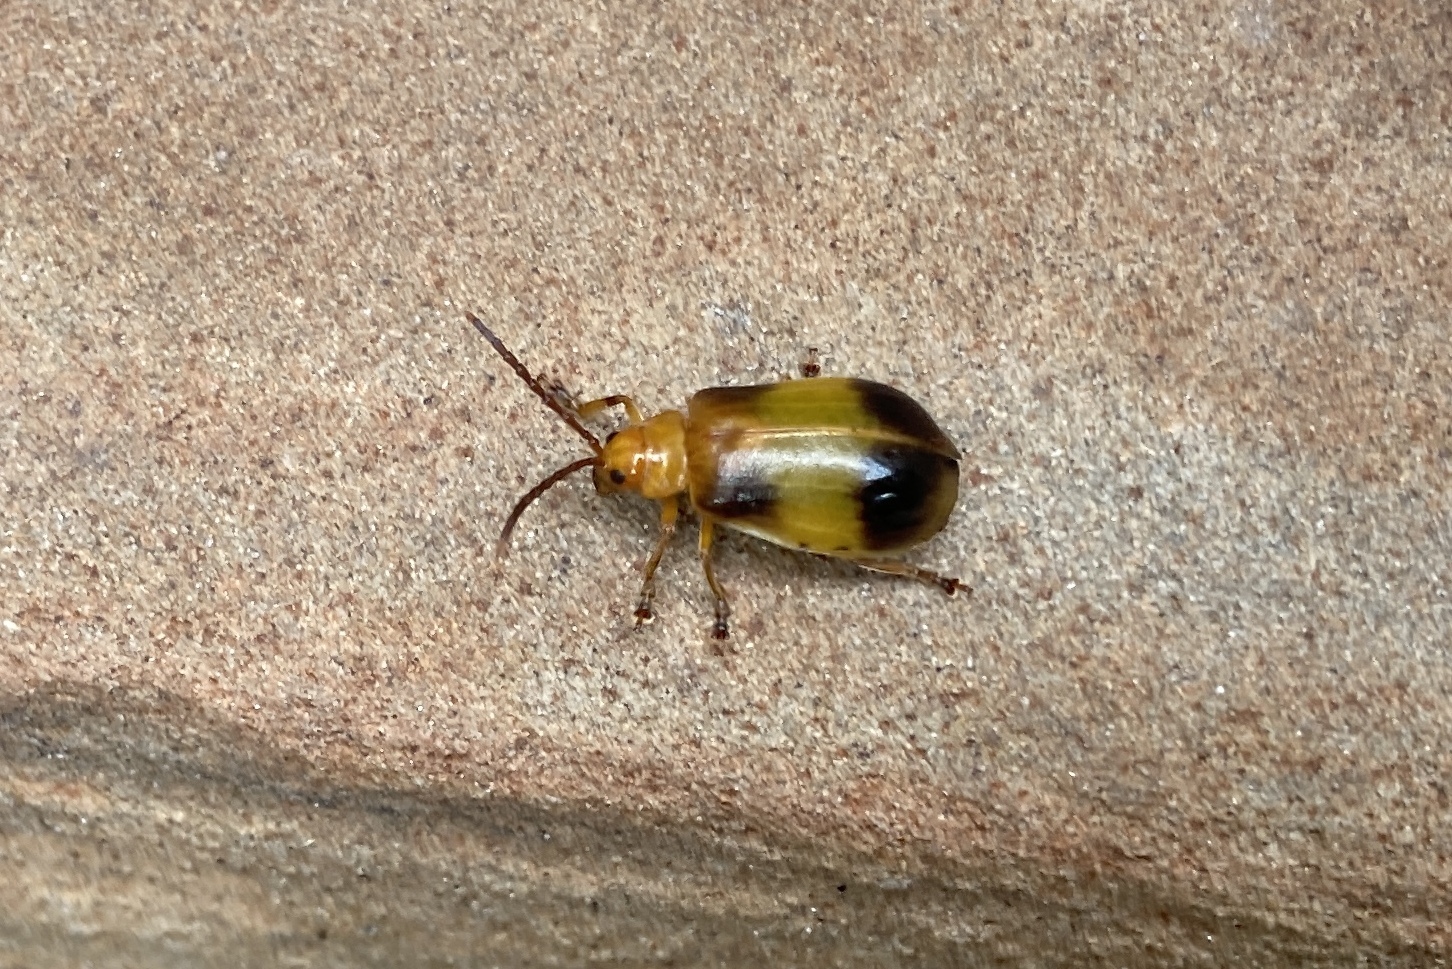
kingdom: Animalia
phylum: Arthropoda
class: Insecta
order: Coleoptera
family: Chrysomelidae
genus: Monocesta
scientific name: Monocesta coryli
